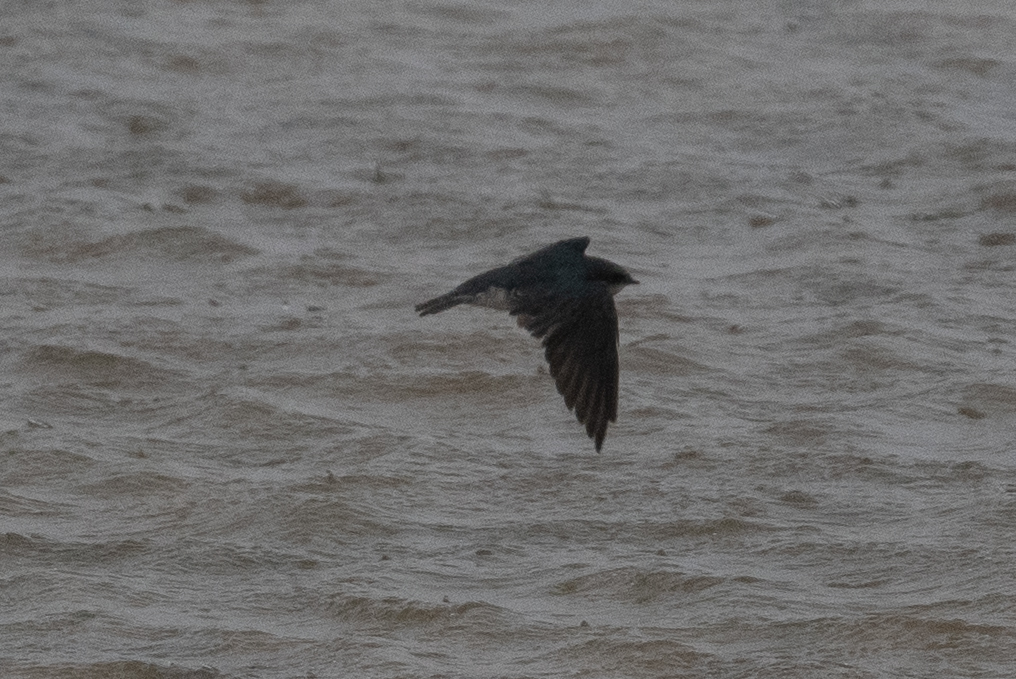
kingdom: Animalia
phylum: Chordata
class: Aves
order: Passeriformes
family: Hirundinidae
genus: Tachycineta
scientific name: Tachycineta bicolor
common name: Tree swallow
